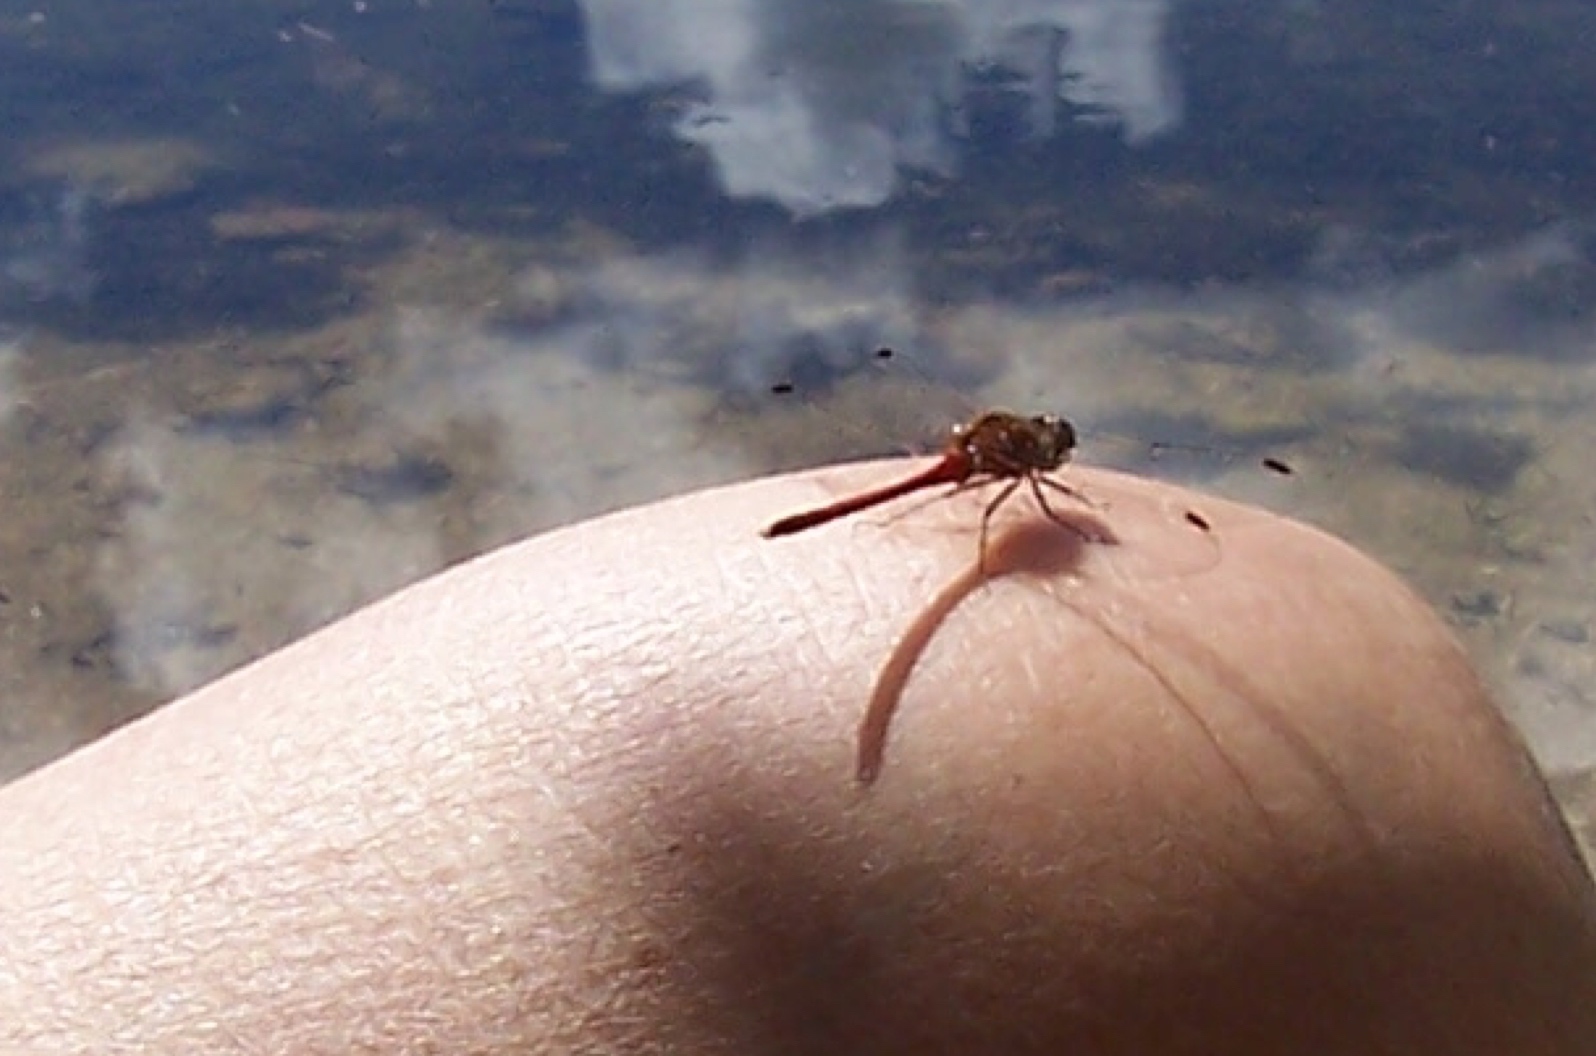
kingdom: Animalia
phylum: Arthropoda
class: Insecta
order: Odonata
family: Libellulidae
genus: Sympetrum
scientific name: Sympetrum vicinum
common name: Autumn meadowhawk
